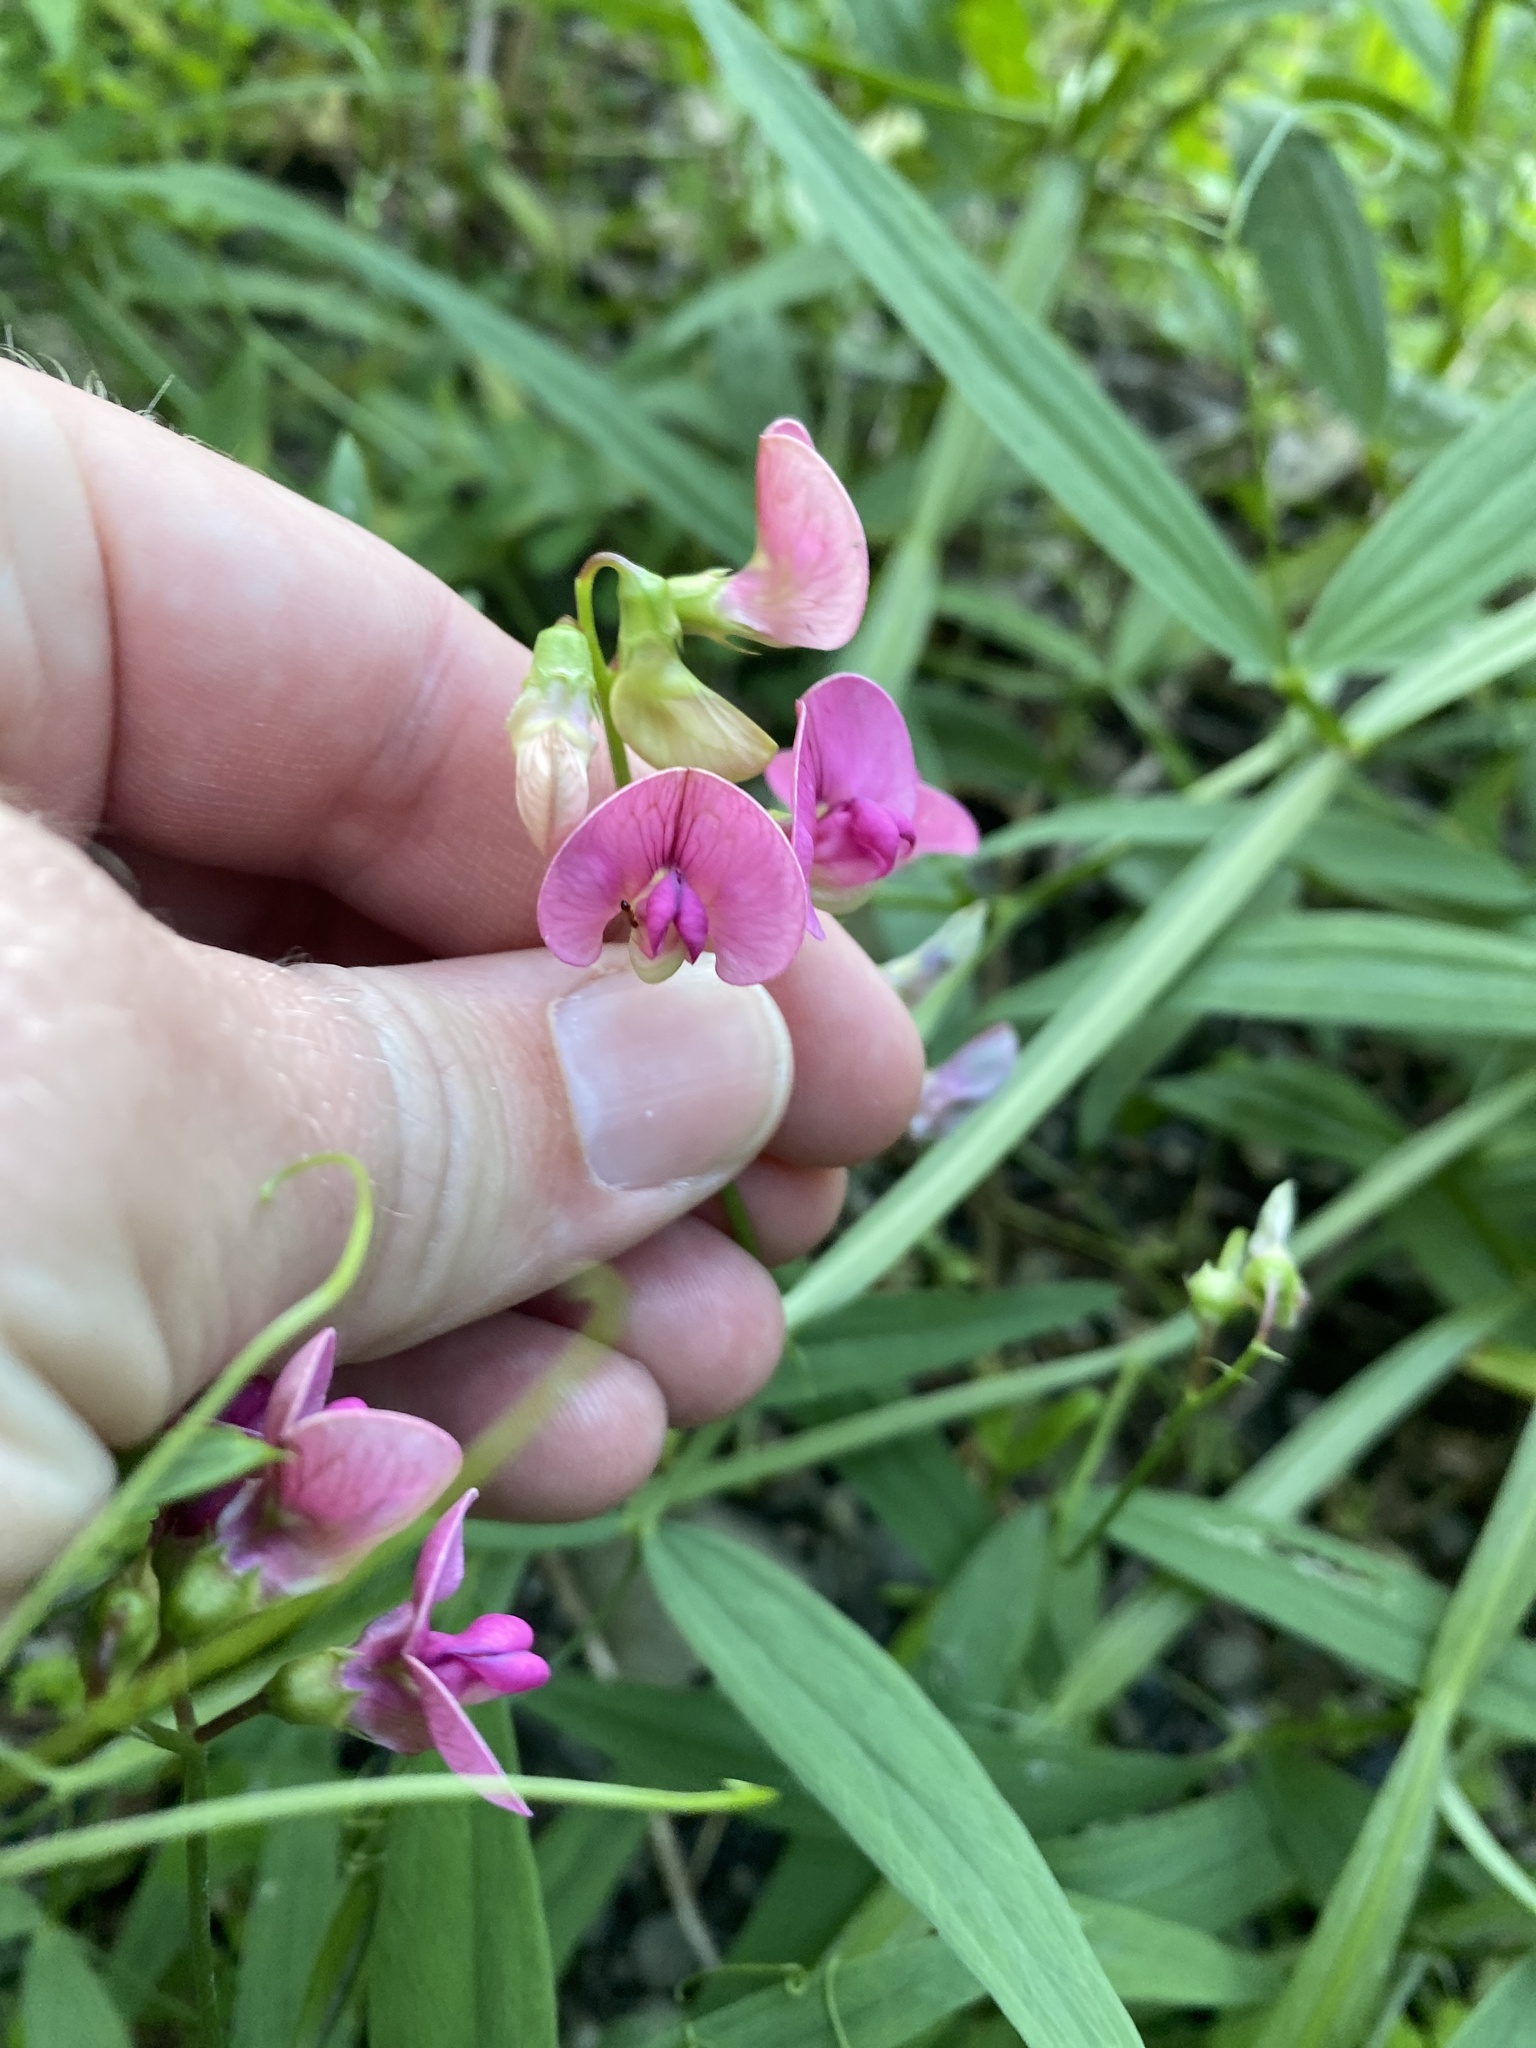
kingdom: Plantae
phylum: Tracheophyta
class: Magnoliopsida
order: Fabales
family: Fabaceae
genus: Lathyrus
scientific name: Lathyrus sylvestris
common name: Flat pea
